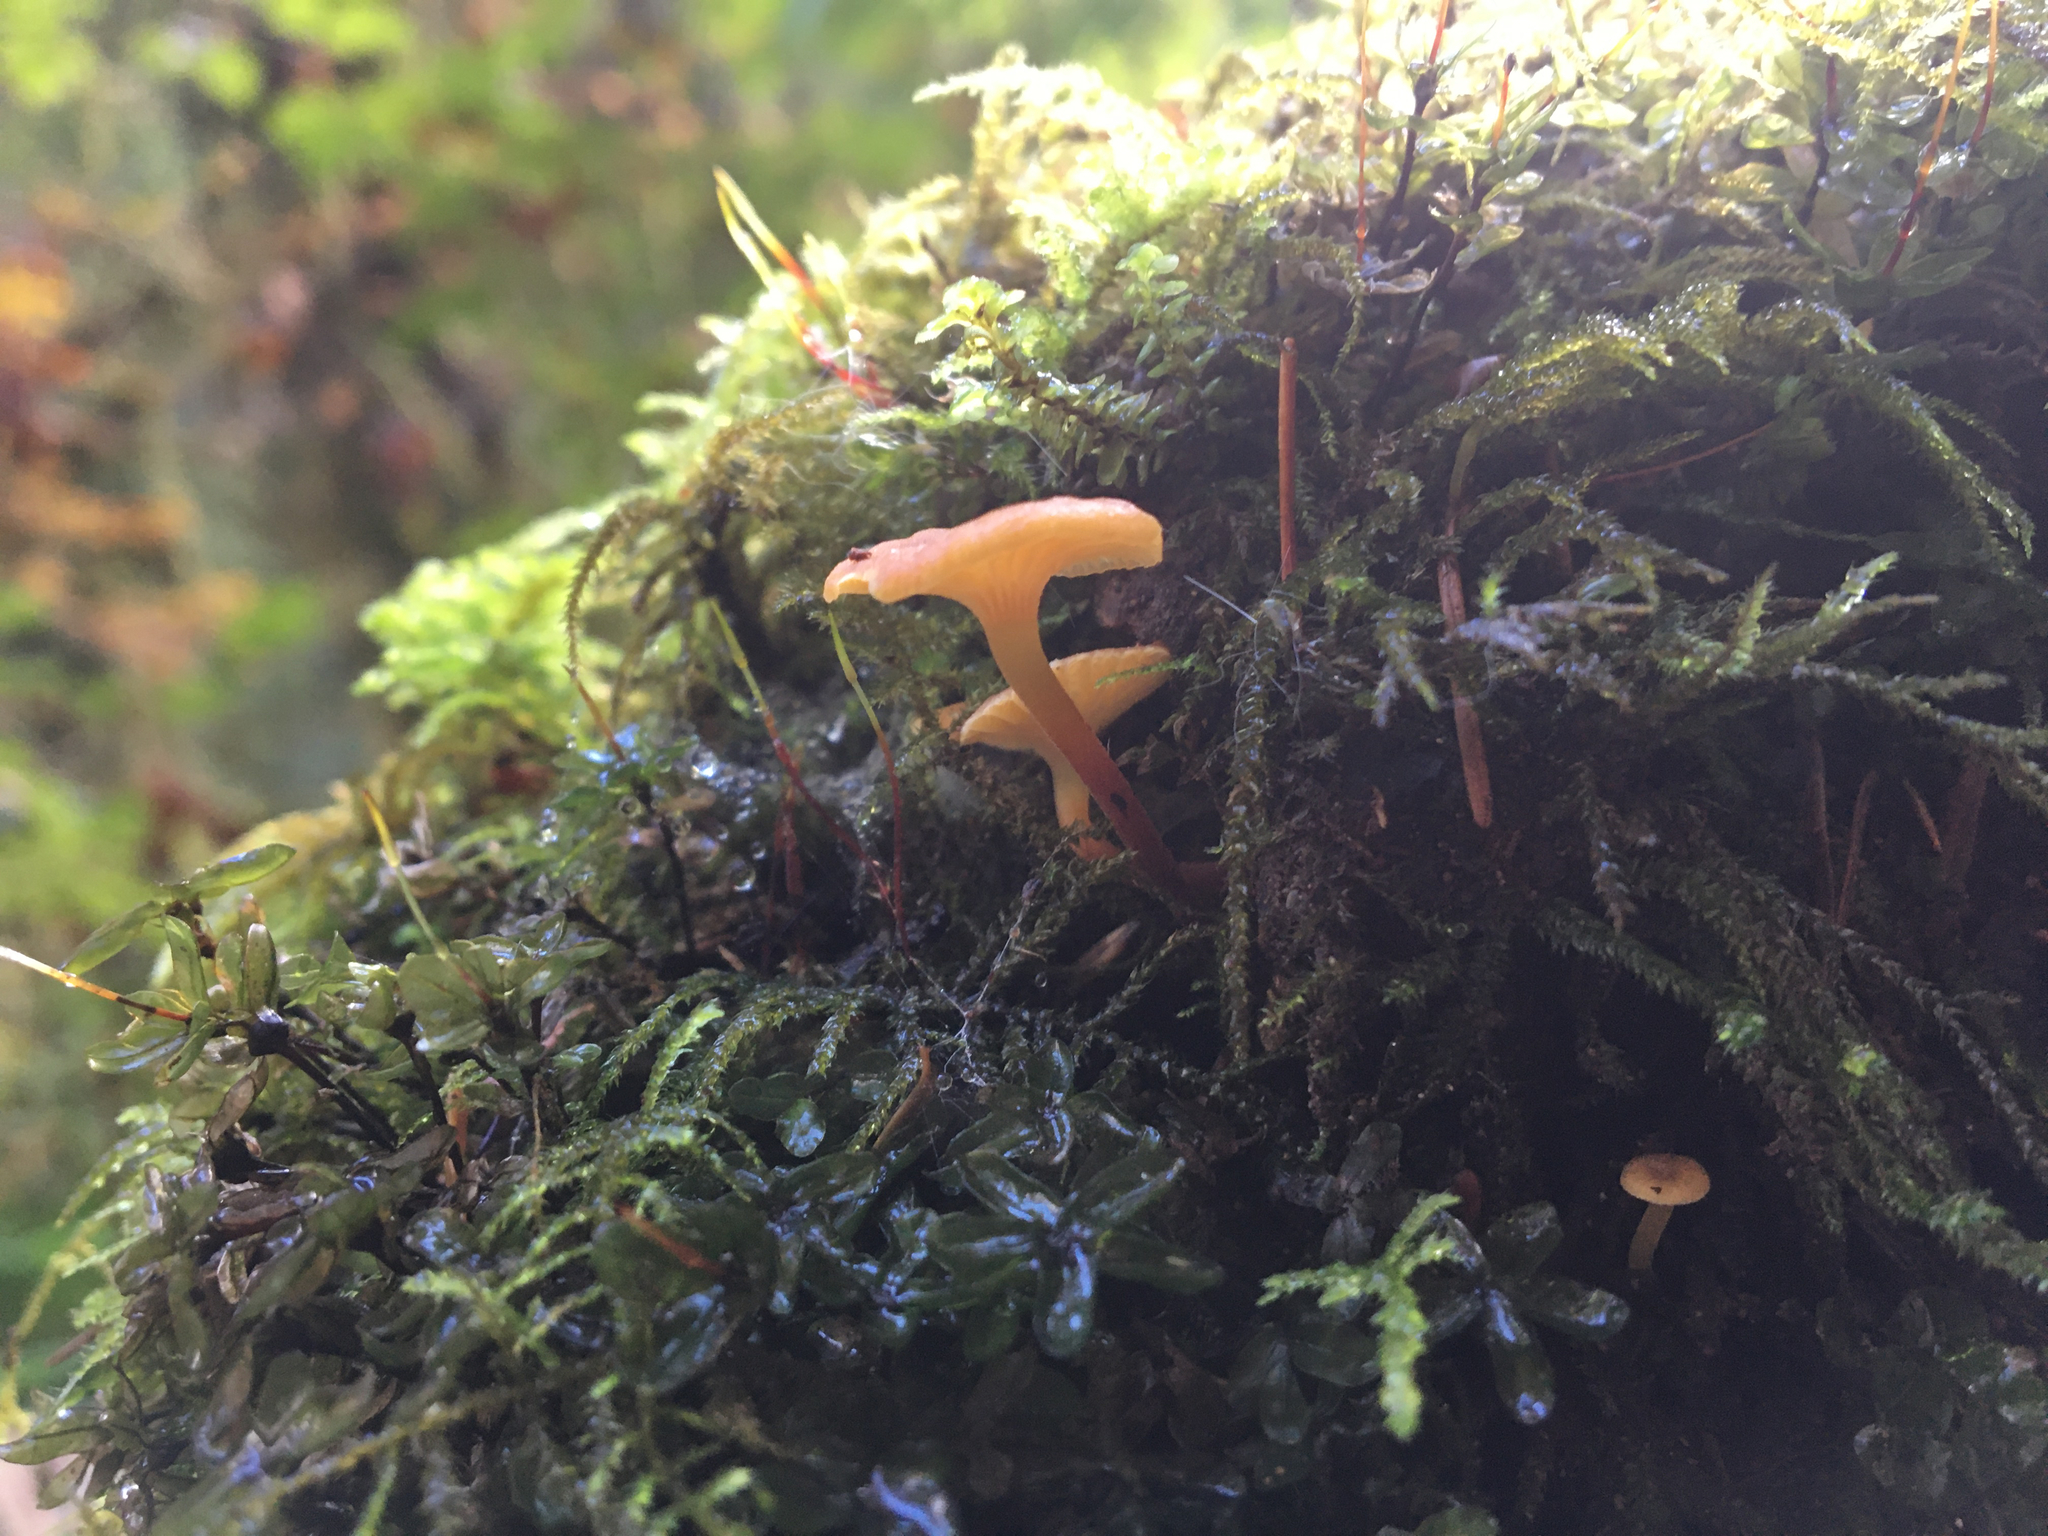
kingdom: Fungi
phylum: Basidiomycota
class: Agaricomycetes
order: Agaricales
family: Mycenaceae
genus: Xeromphalina
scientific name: Xeromphalina campanella
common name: Pinewood gingertail
